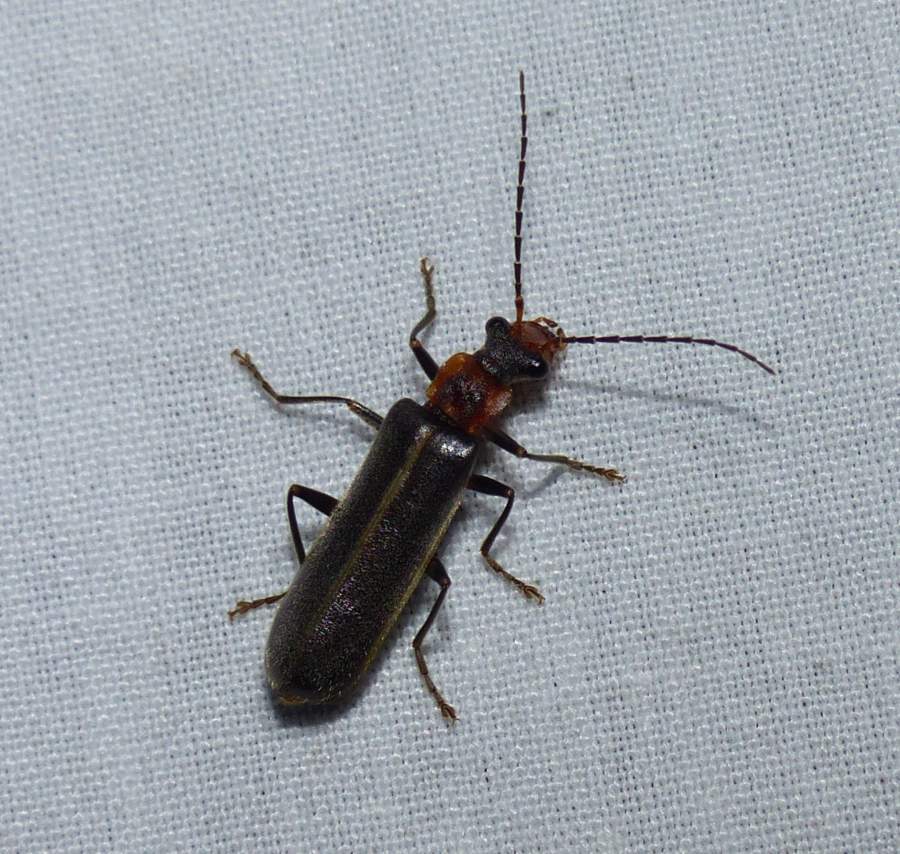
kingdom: Animalia
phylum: Arthropoda
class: Insecta
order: Coleoptera
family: Cantharidae
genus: Dichelotarsus
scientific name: Dichelotarsus cinctipennis
